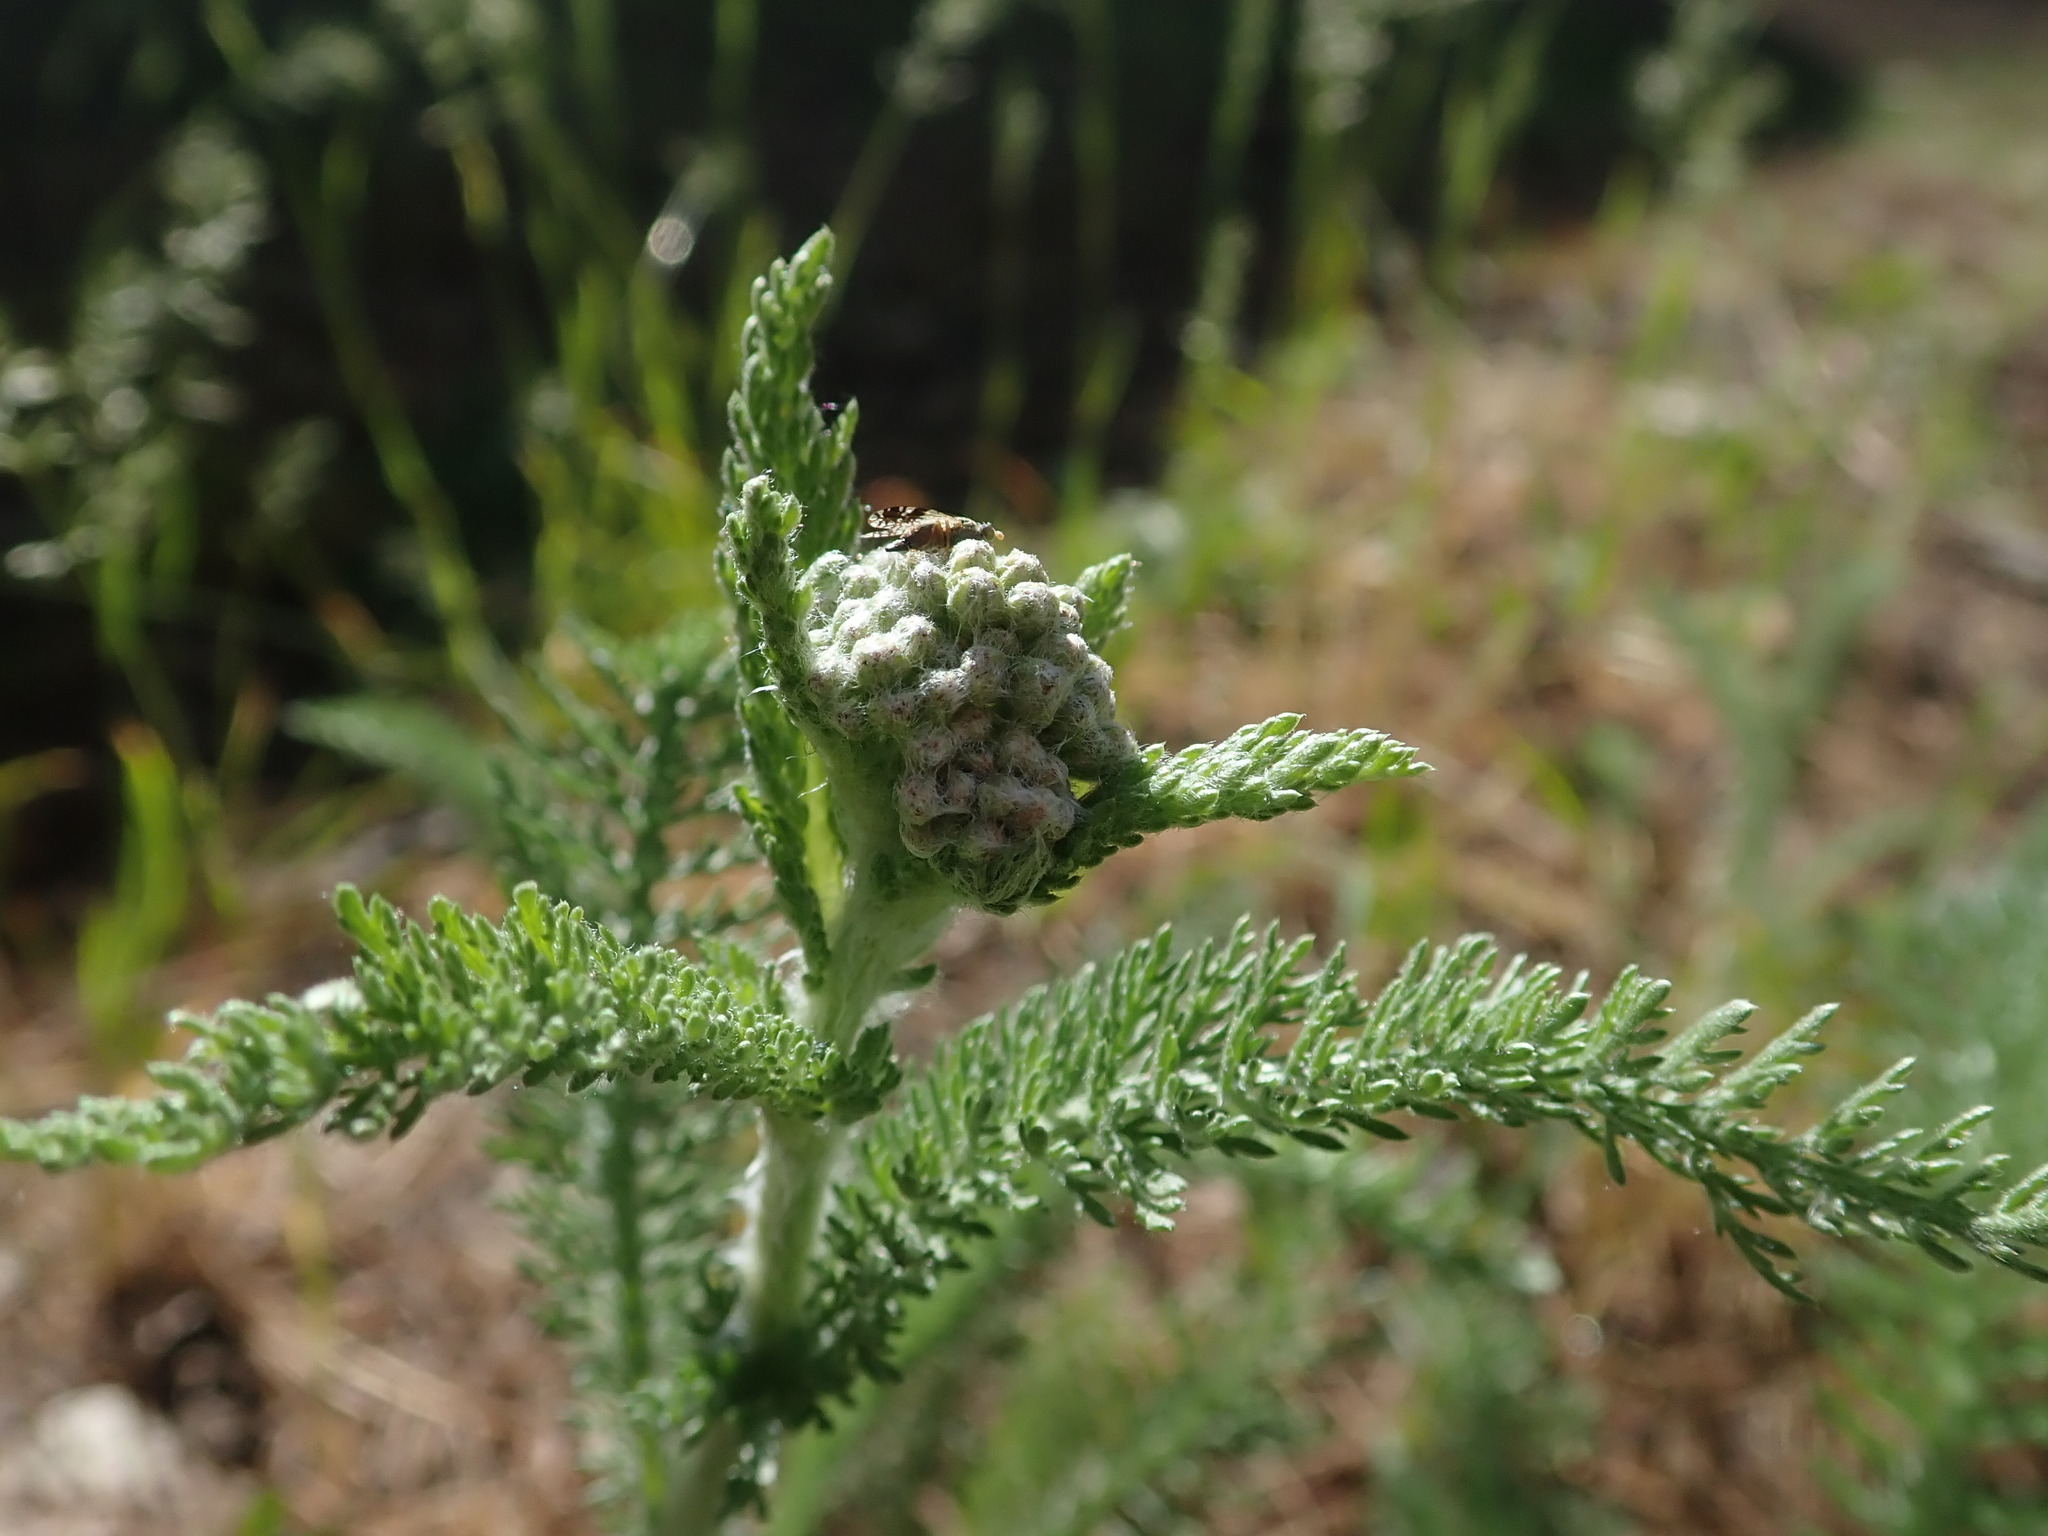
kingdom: Plantae
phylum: Tracheophyta
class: Magnoliopsida
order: Asterales
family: Asteraceae
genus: Achillea
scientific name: Achillea millefolium
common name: Yarrow
